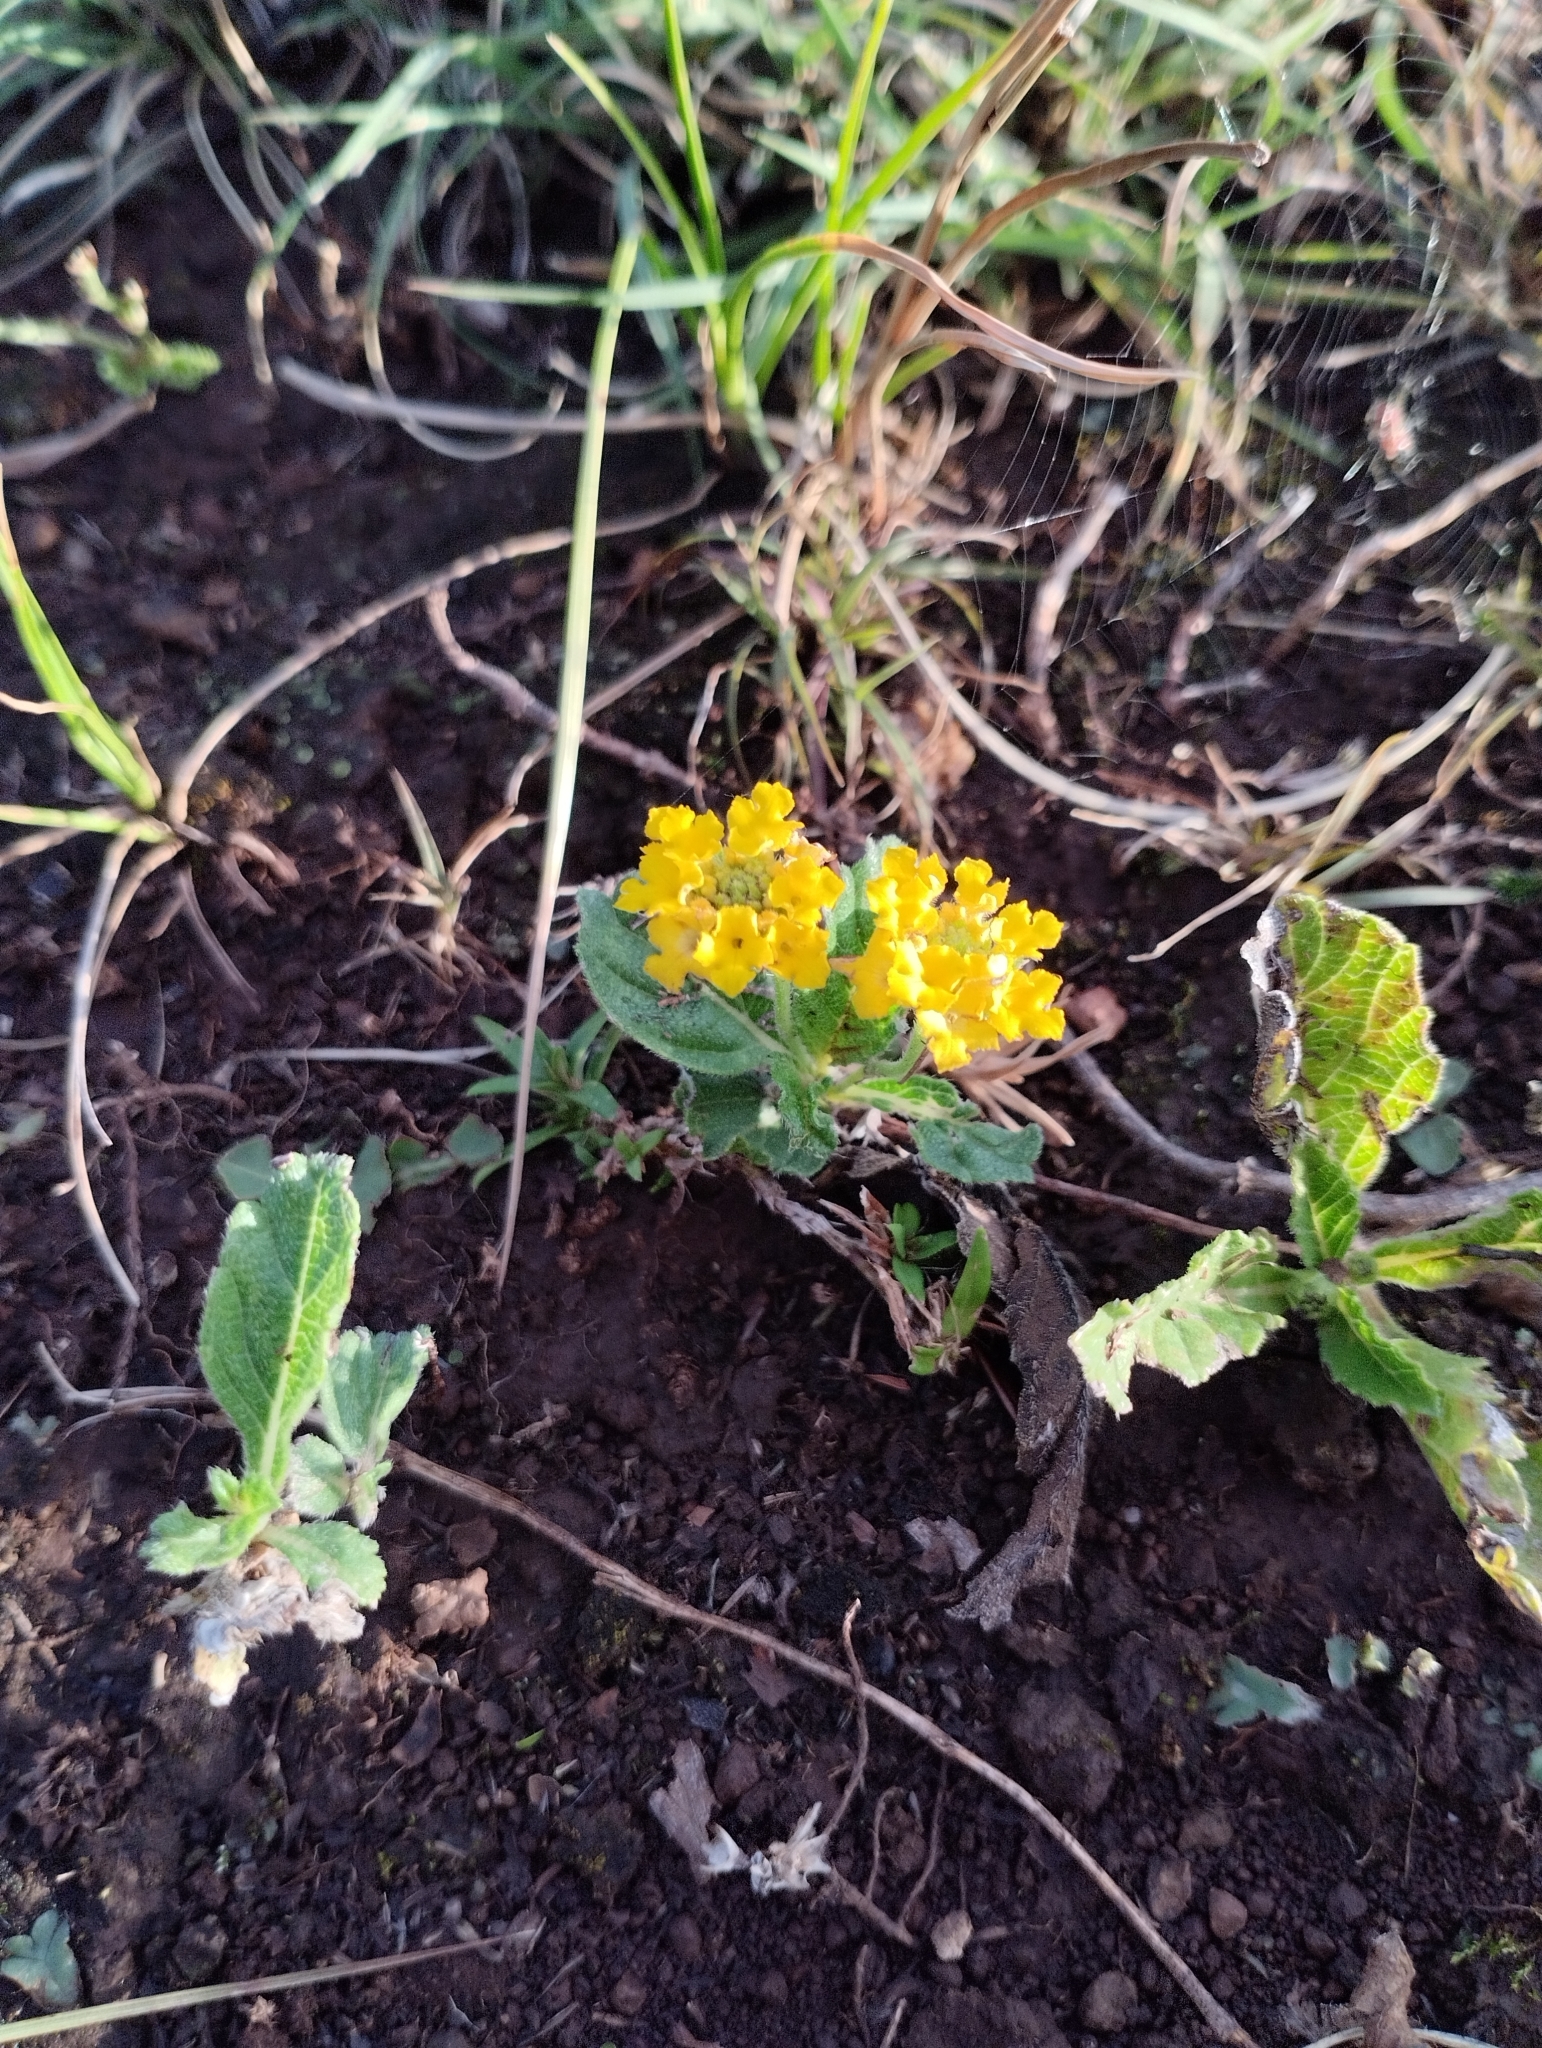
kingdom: Plantae
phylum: Tracheophyta
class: Magnoliopsida
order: Lamiales
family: Verbenaceae
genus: Lippia
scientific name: Lippia coarctata
